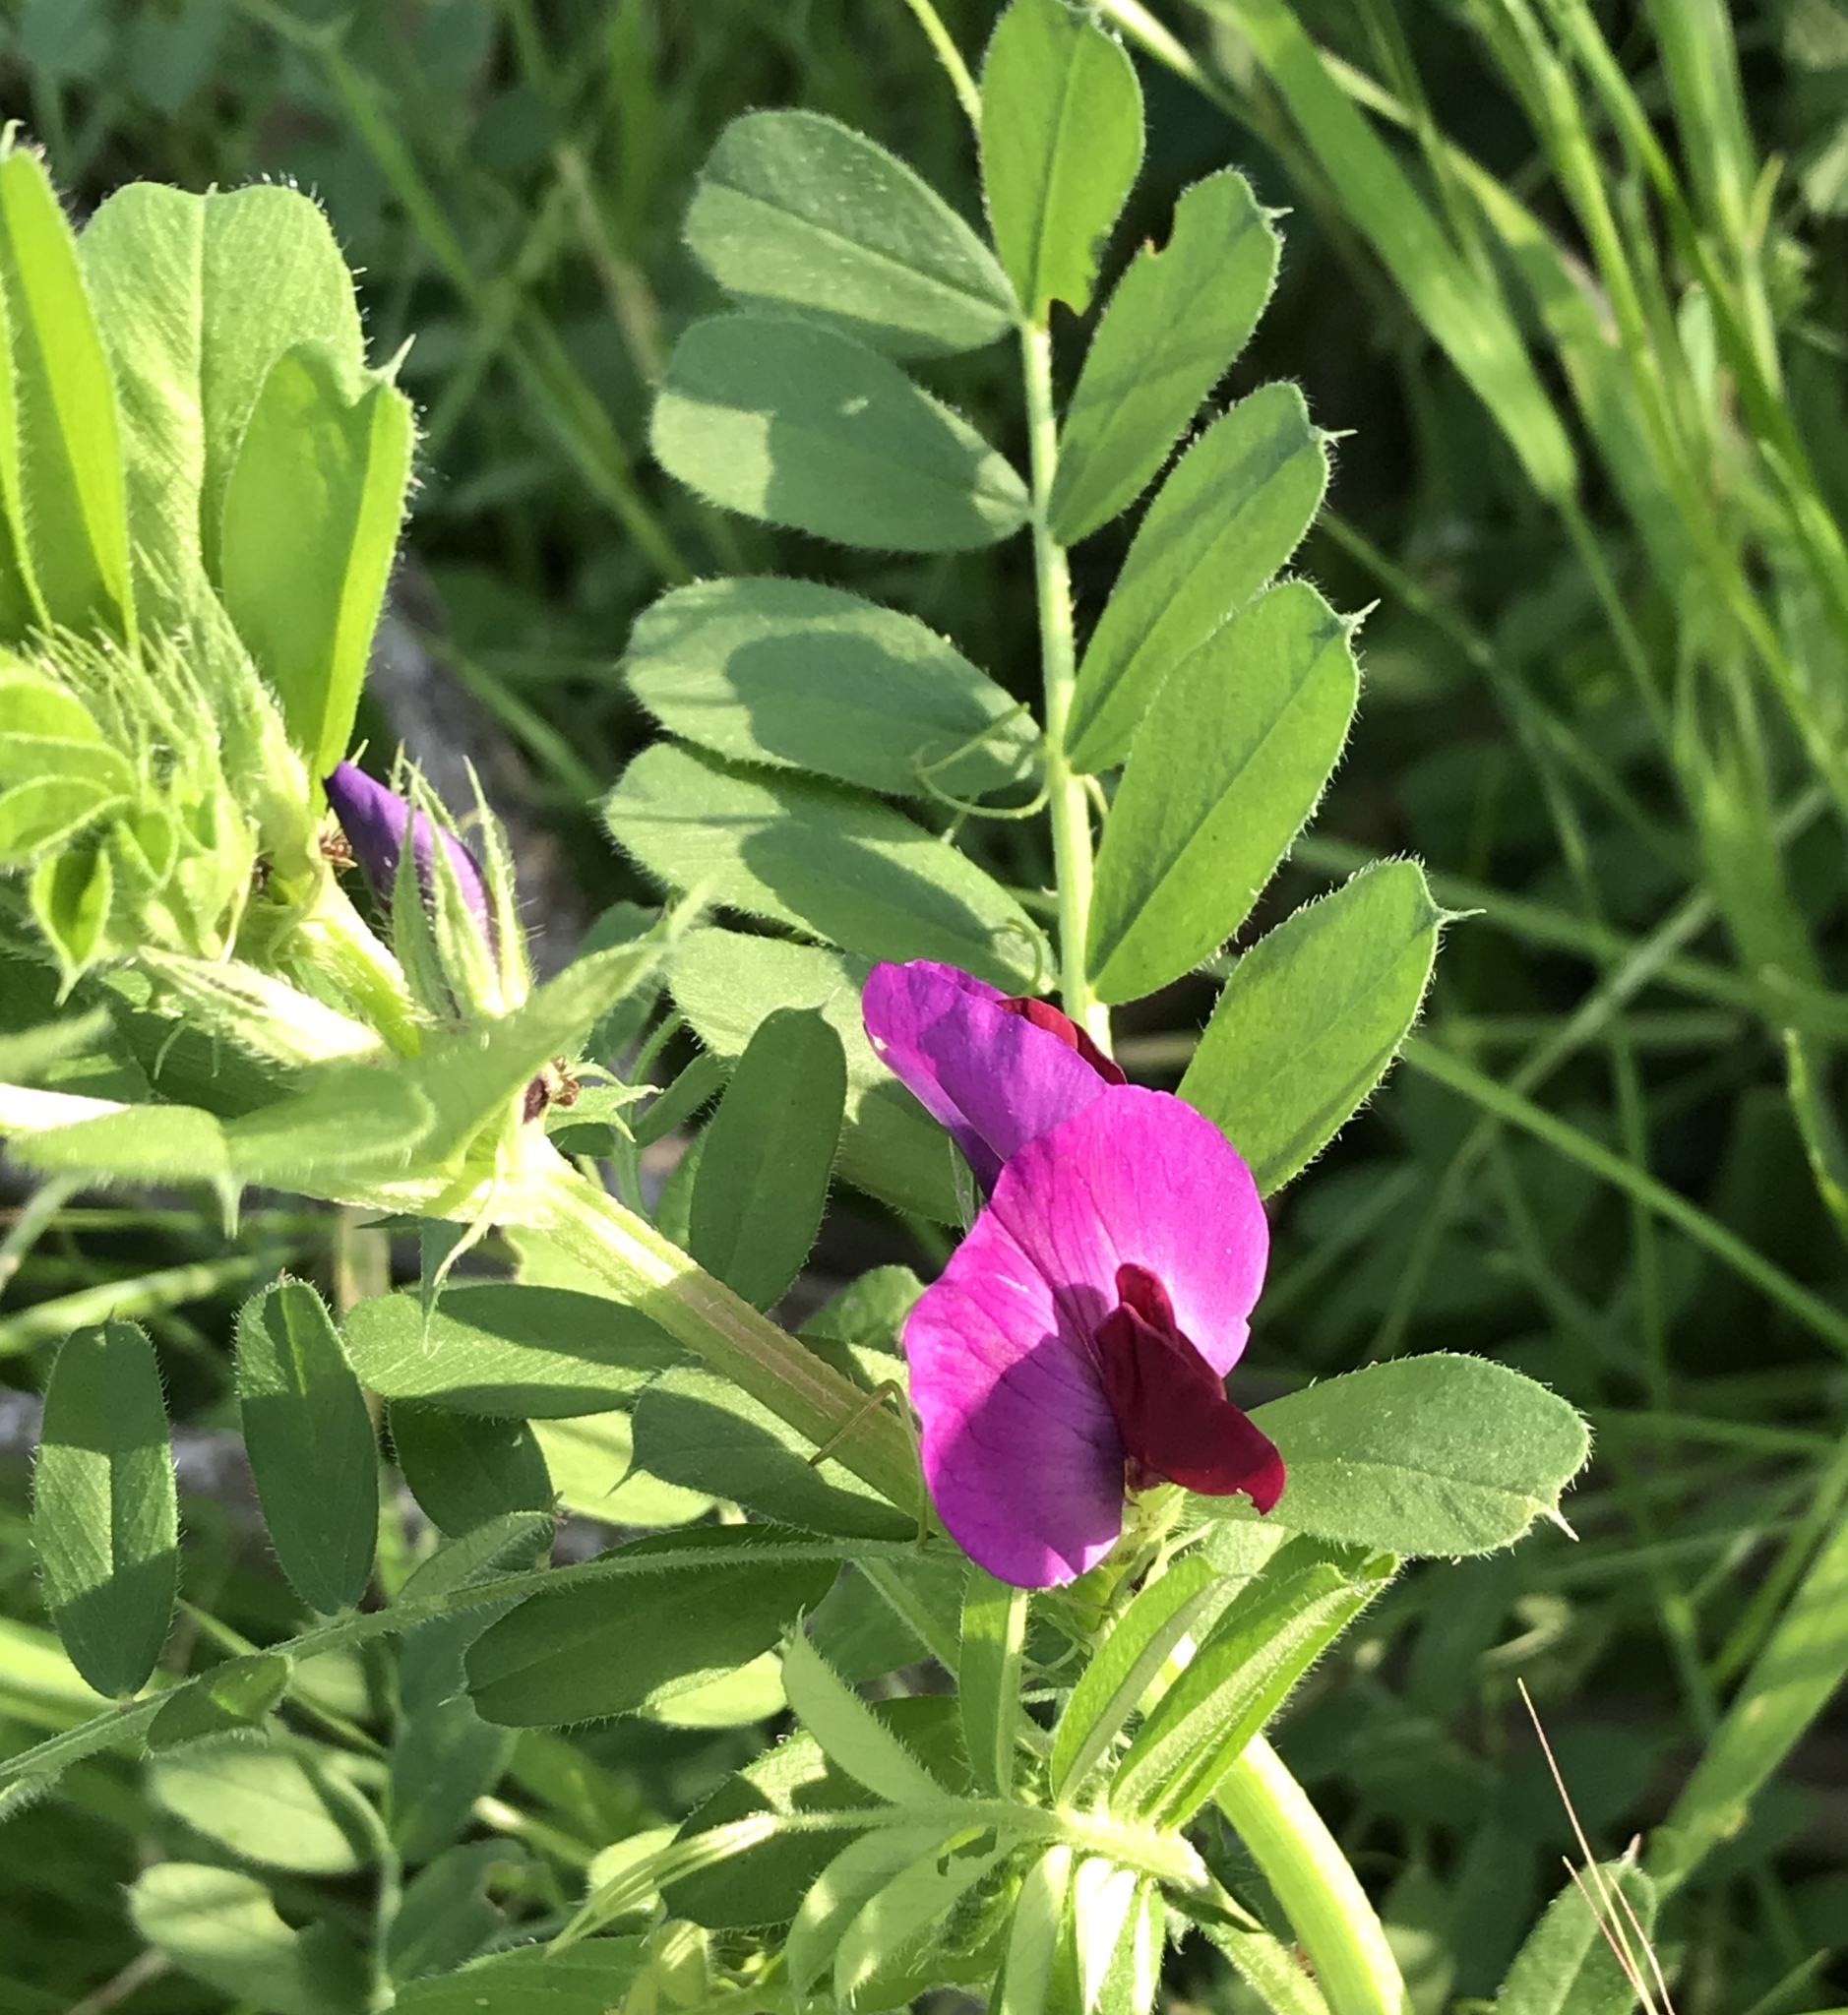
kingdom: Plantae
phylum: Tracheophyta
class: Magnoliopsida
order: Fabales
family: Fabaceae
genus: Vicia
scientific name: Vicia sativa
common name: Garden vetch
